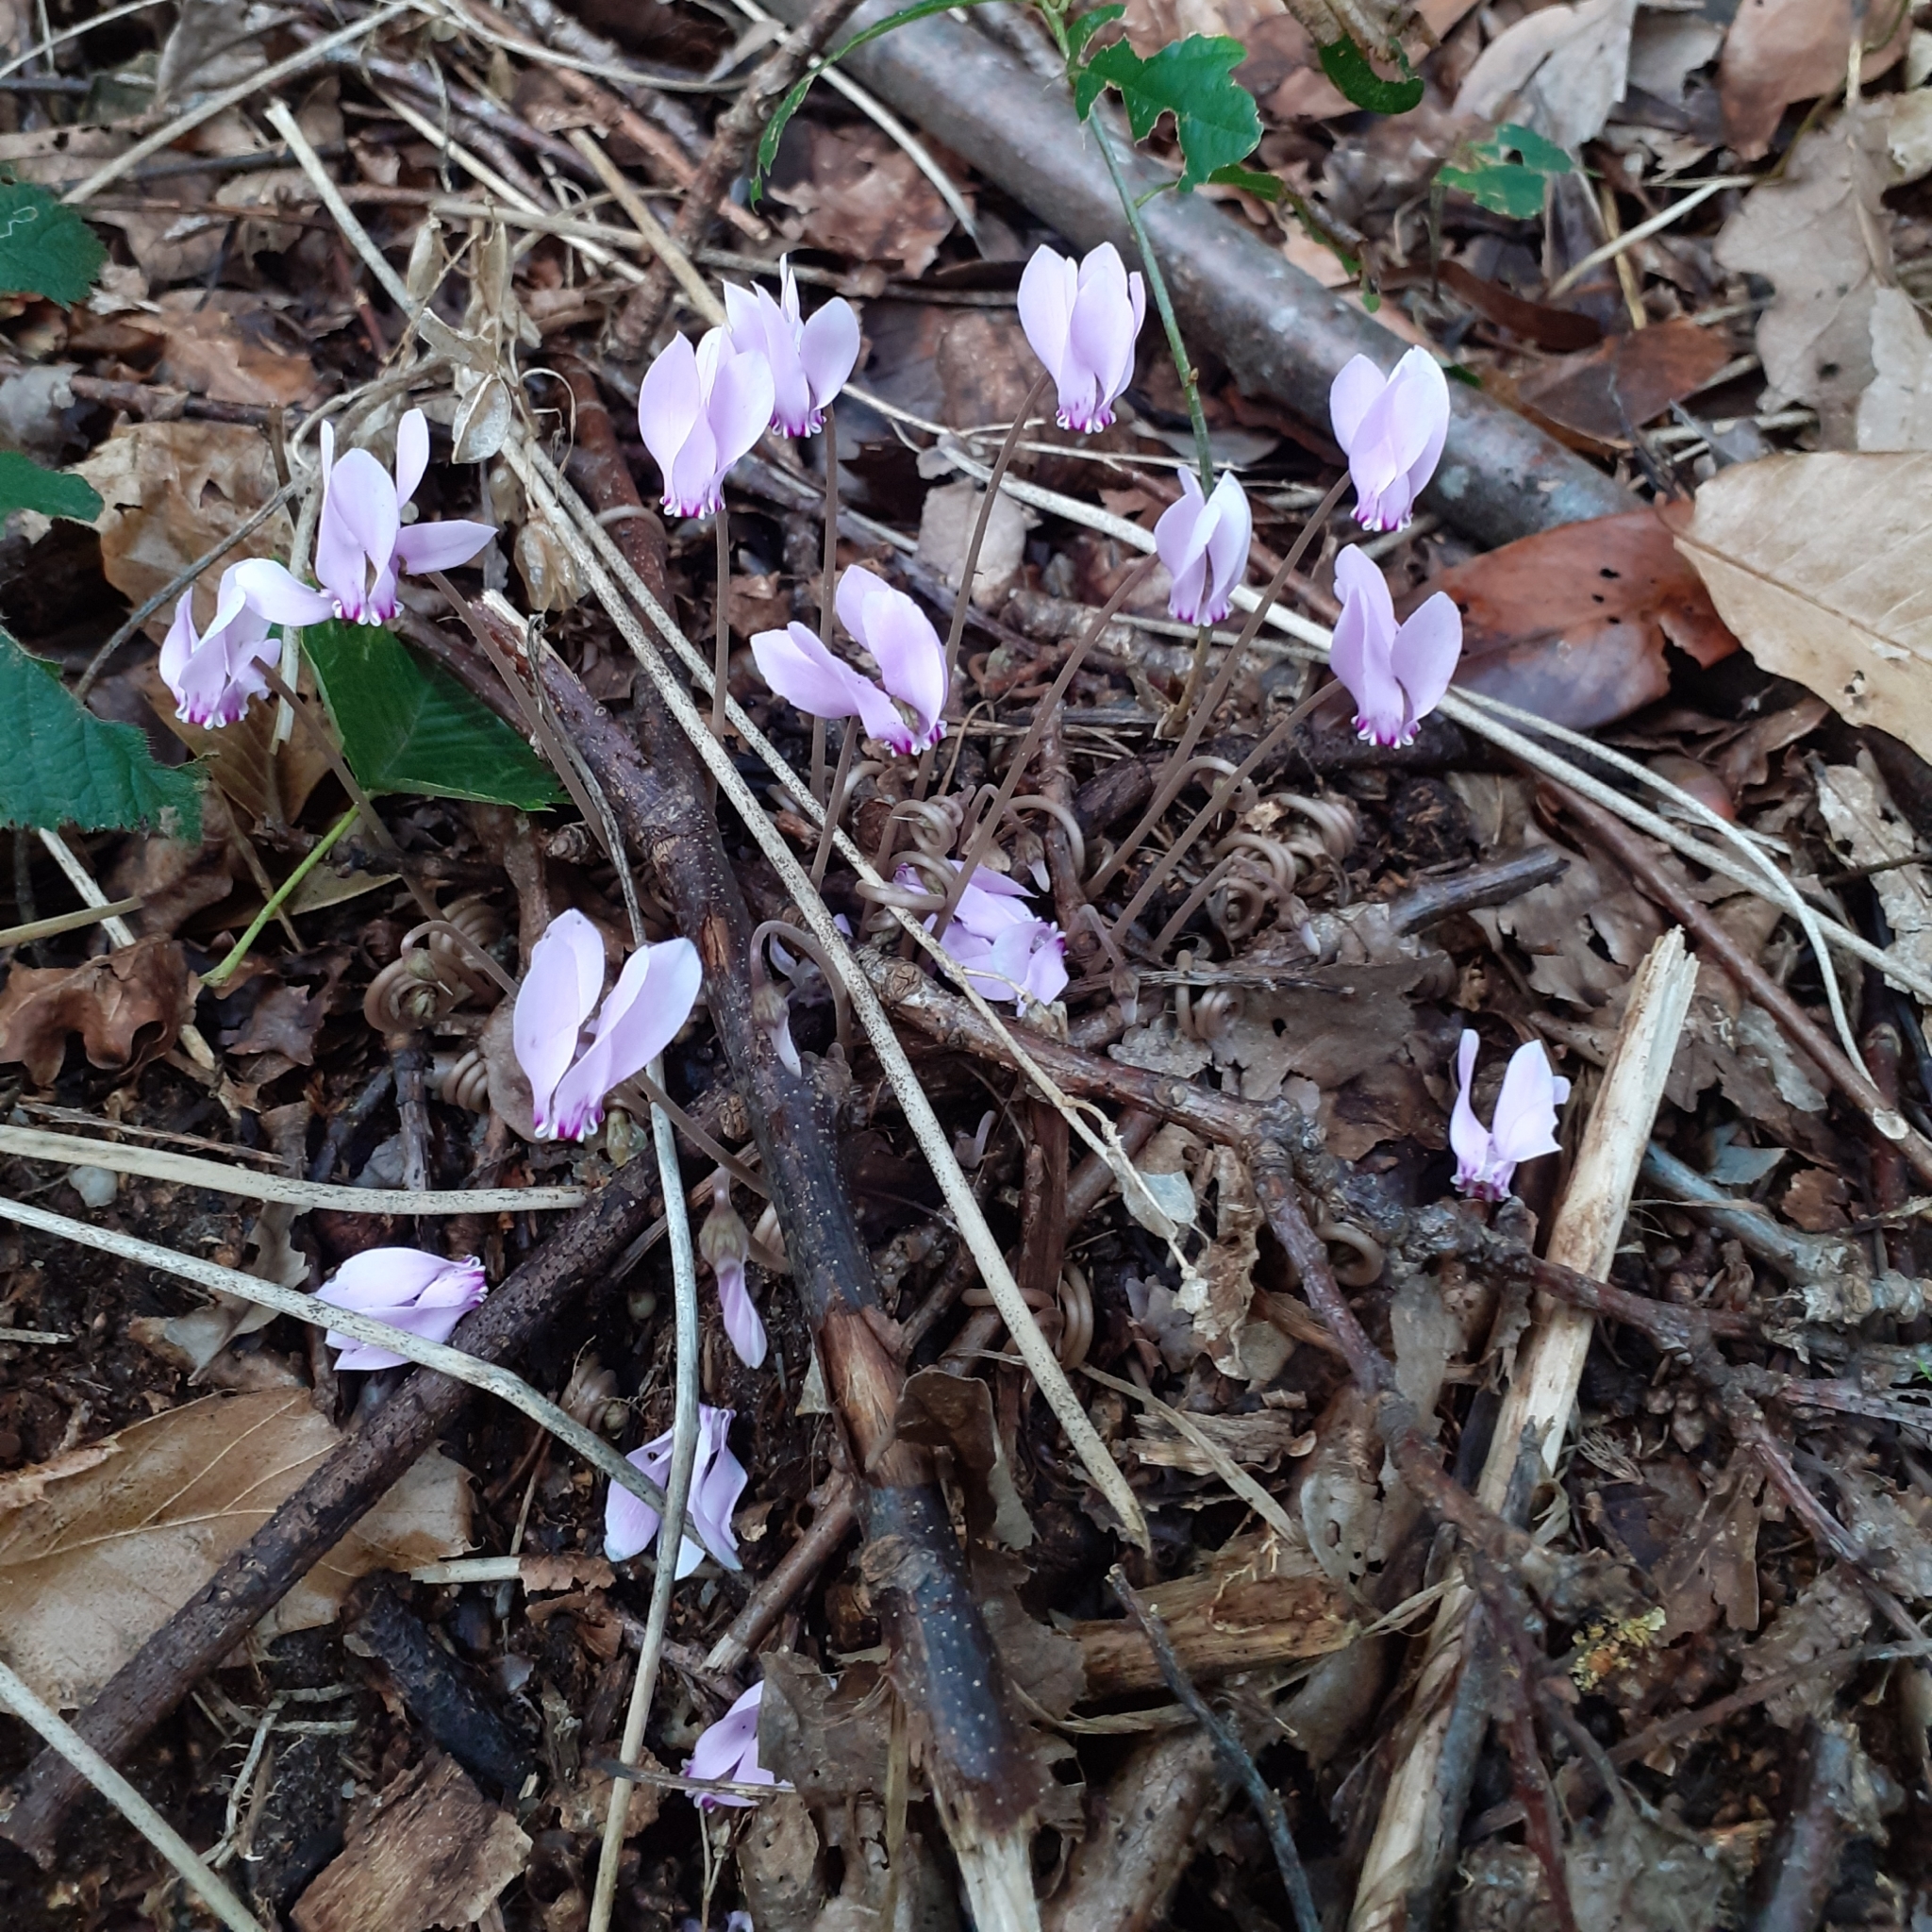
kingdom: Plantae
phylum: Tracheophyta
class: Magnoliopsida
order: Ericales
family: Primulaceae
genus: Cyclamen
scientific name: Cyclamen hederifolium
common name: Sowbread
